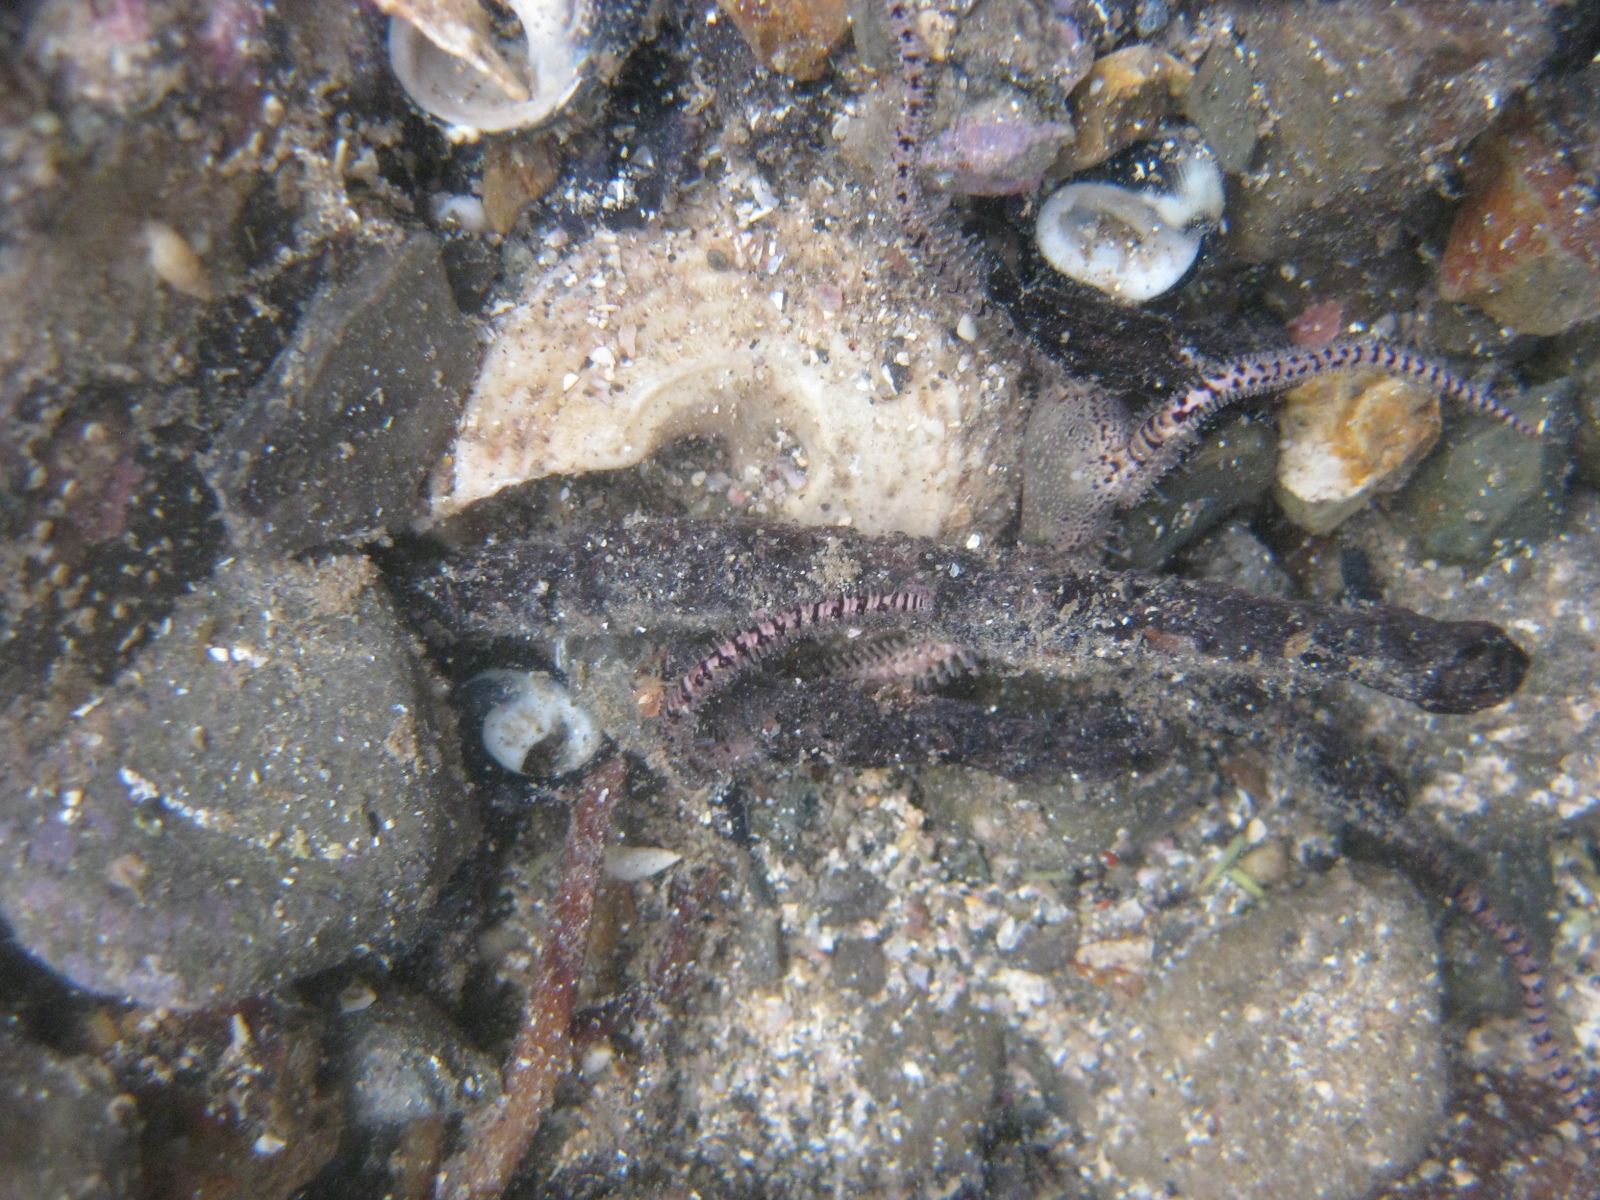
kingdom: Animalia
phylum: Echinodermata
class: Ophiuroidea
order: Amphilepidida
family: Ophionereididae
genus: Ophionereis
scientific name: Ophionereis fasciata
